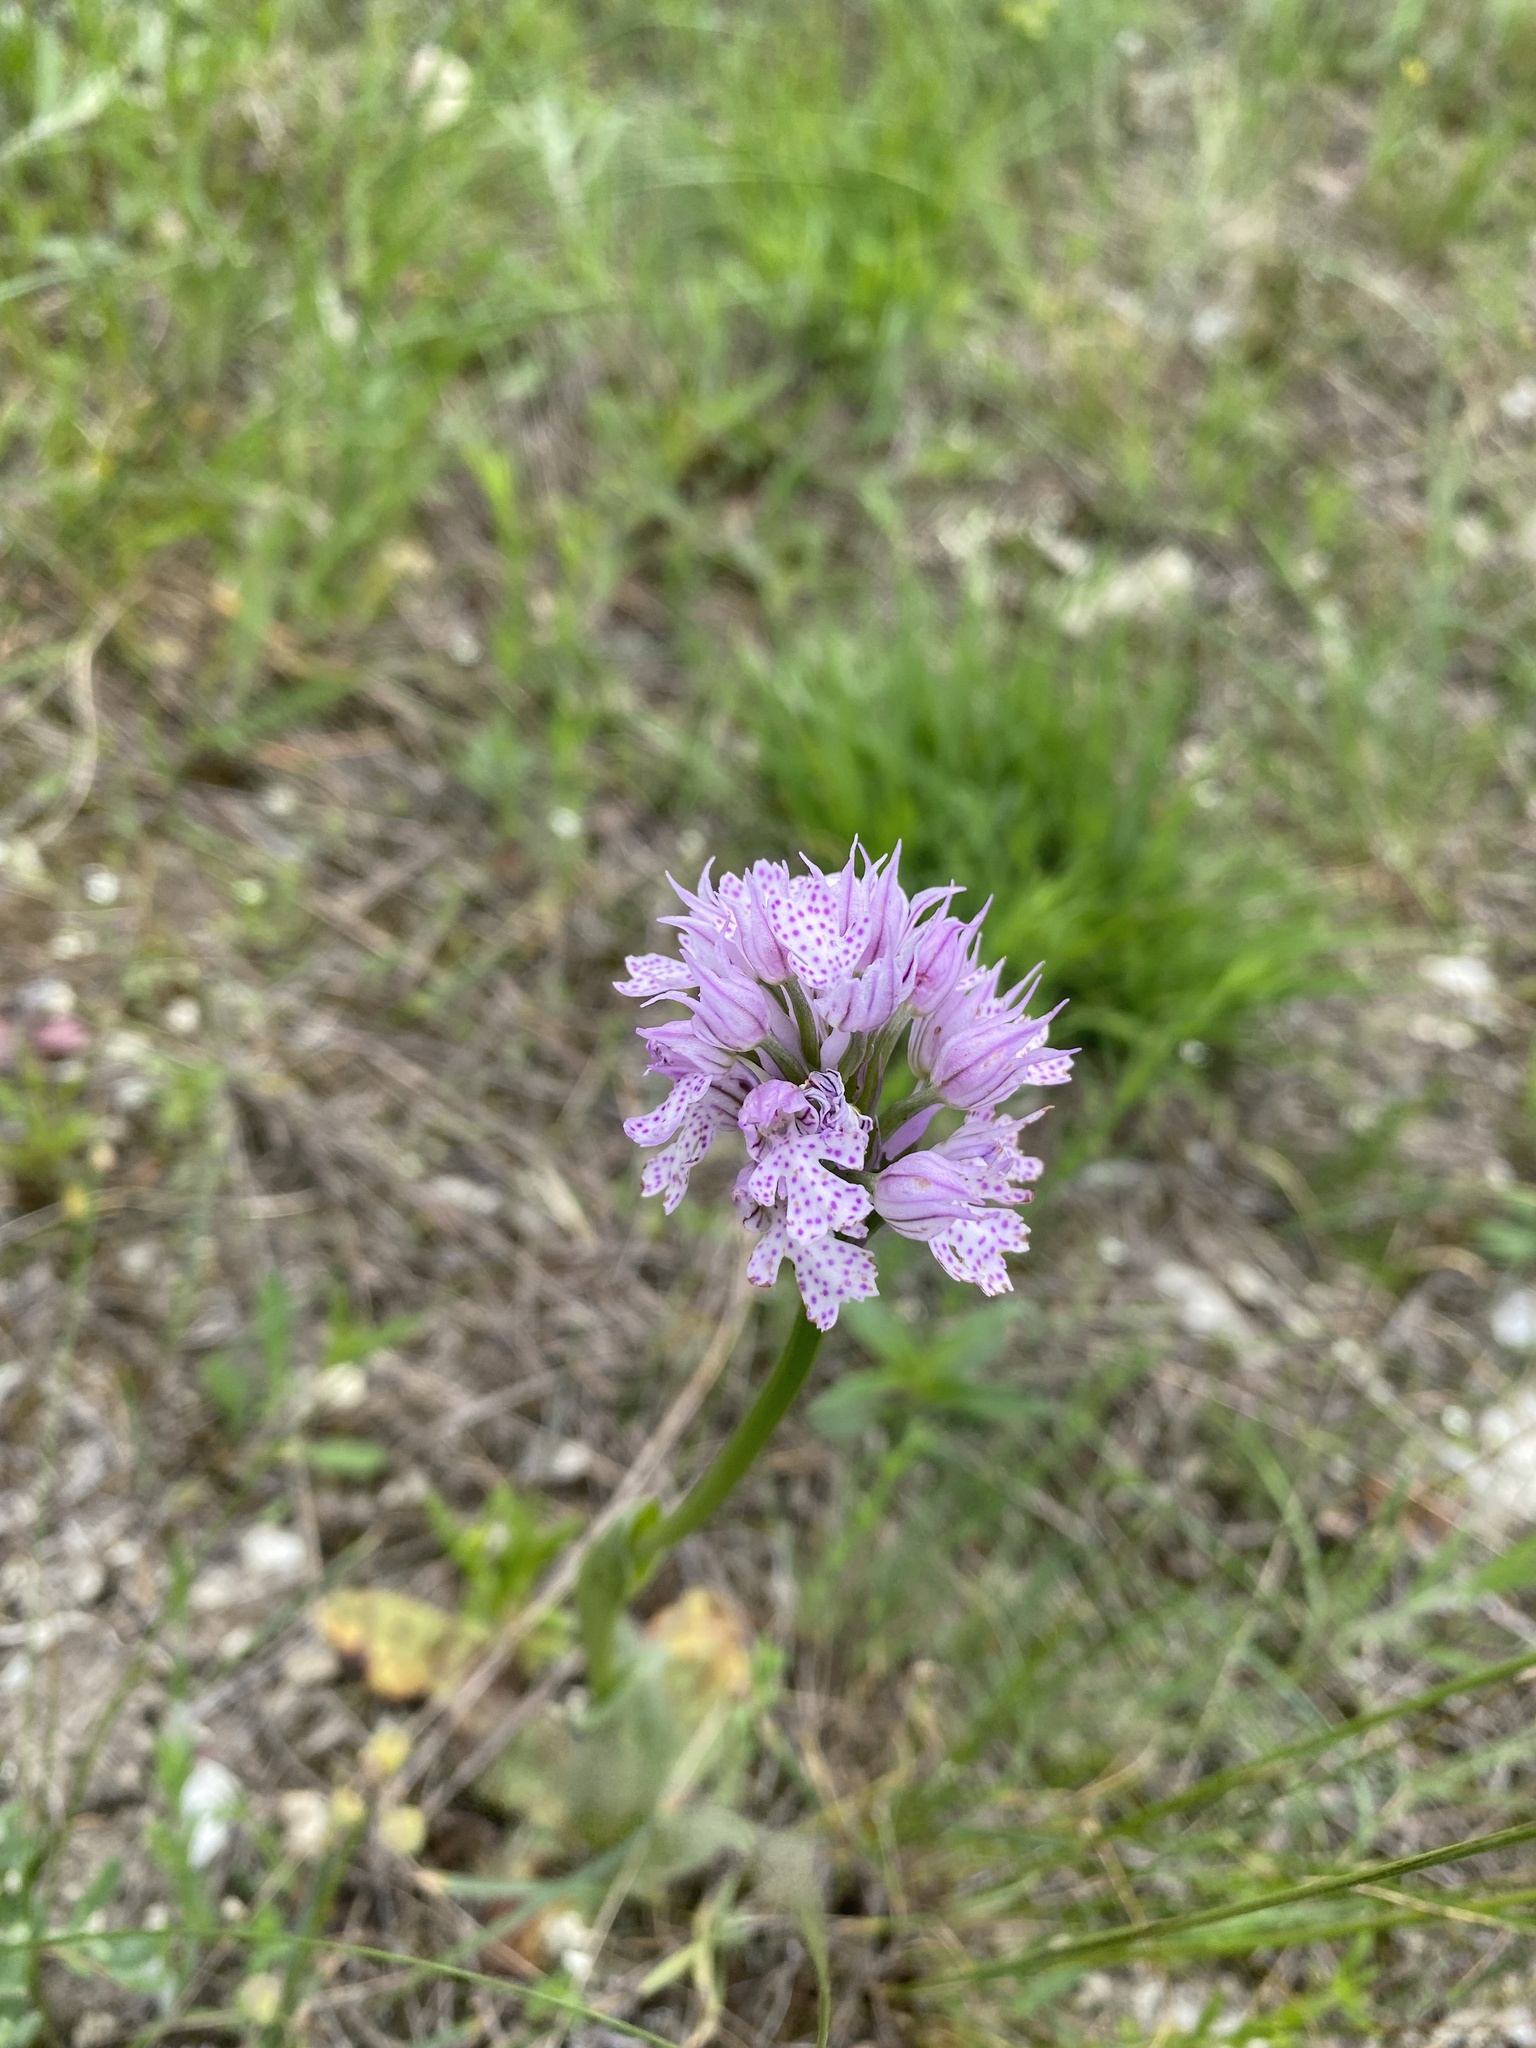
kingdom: Plantae
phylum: Tracheophyta
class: Liliopsida
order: Asparagales
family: Orchidaceae
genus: Neotinea
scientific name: Neotinea tridentata
